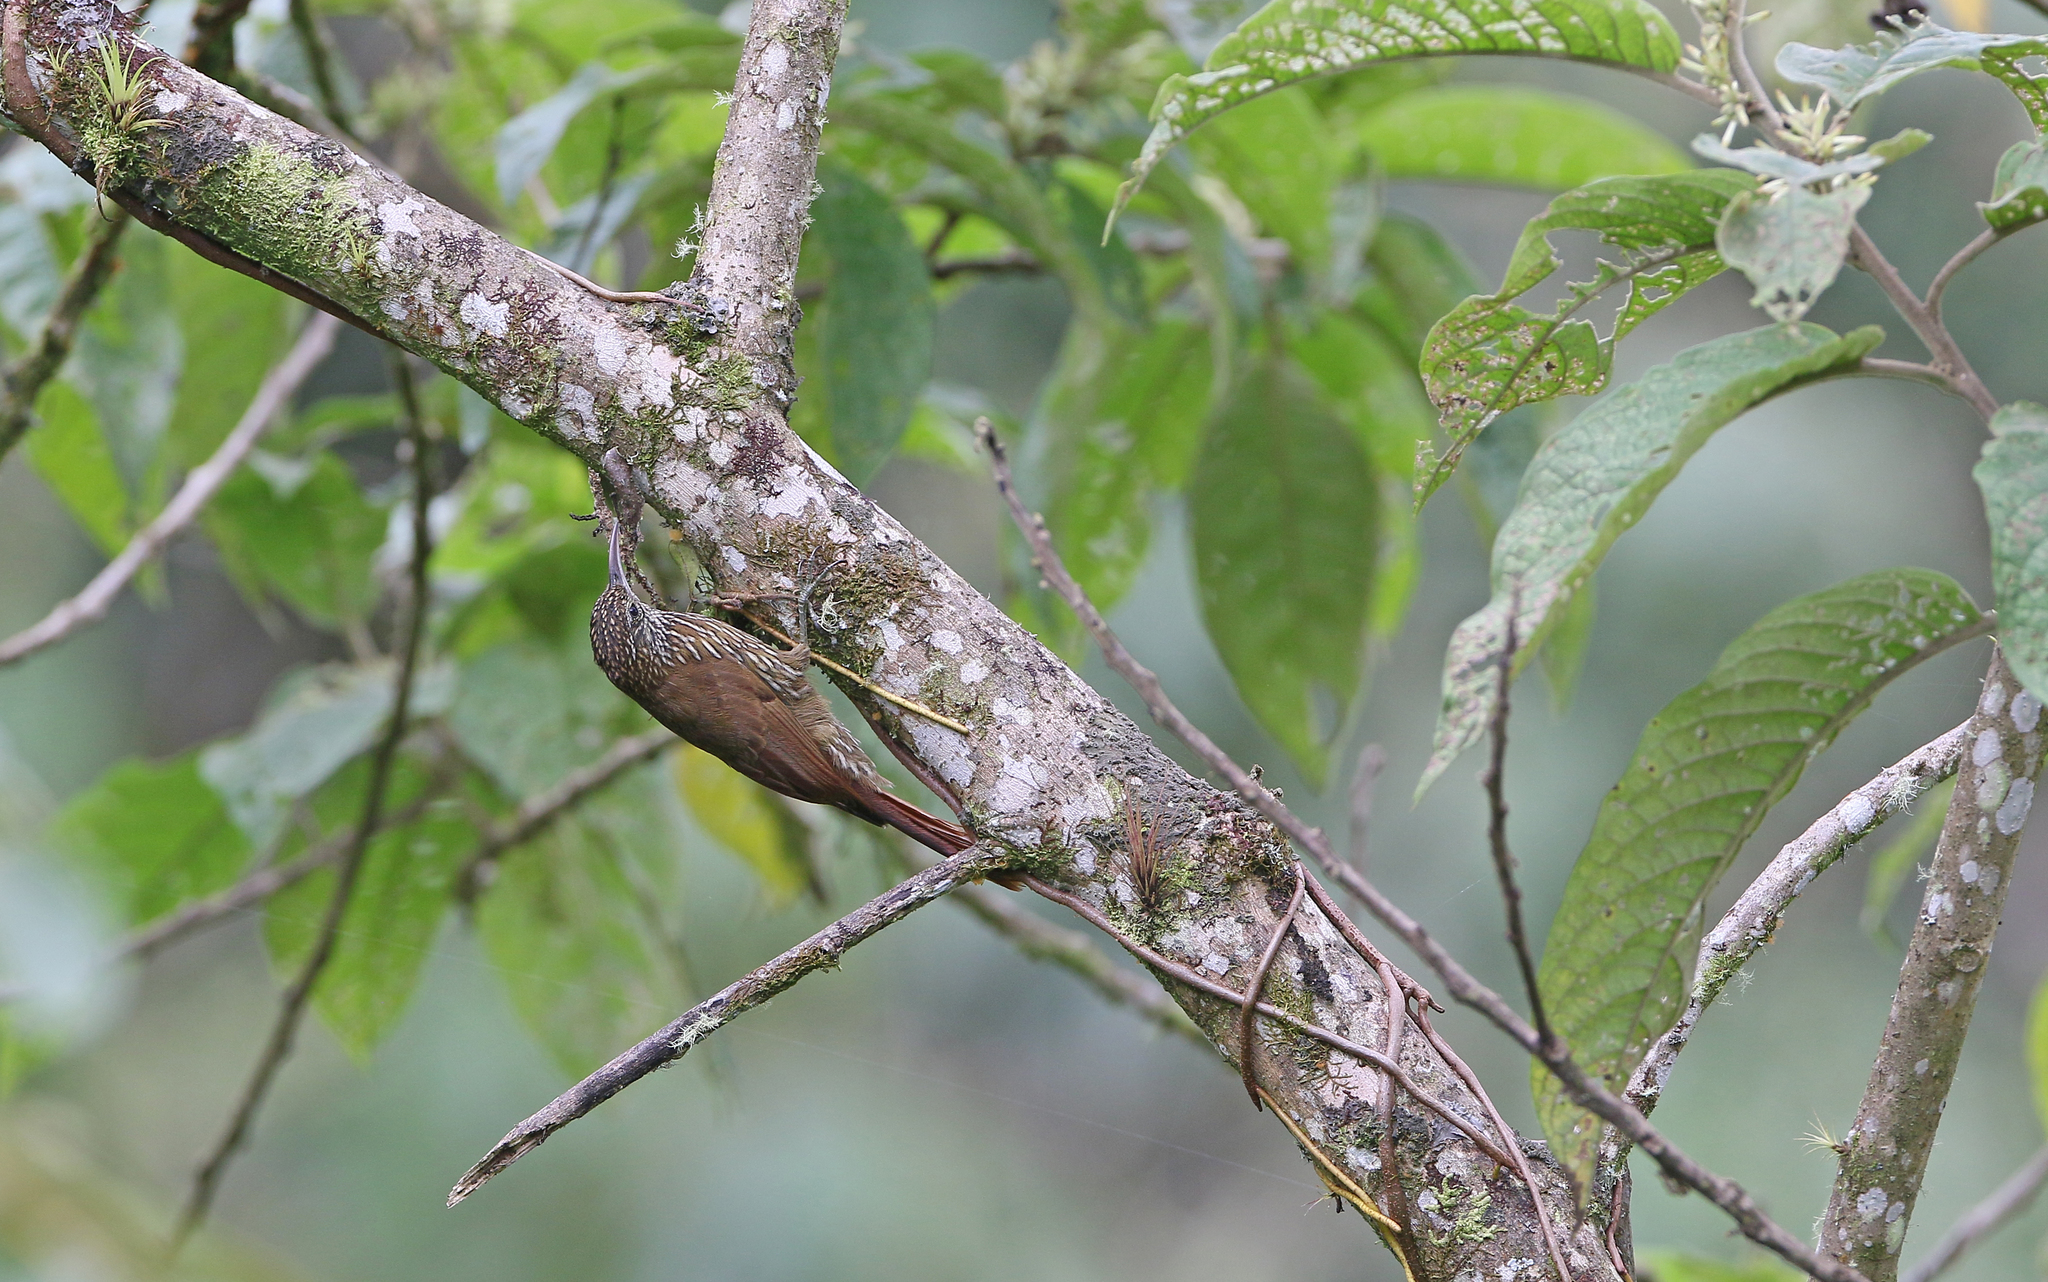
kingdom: Animalia
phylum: Chordata
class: Aves
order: Passeriformes
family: Furnariidae
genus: Lepidocolaptes
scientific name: Lepidocolaptes lacrymiger
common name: Montane woodcreeper
